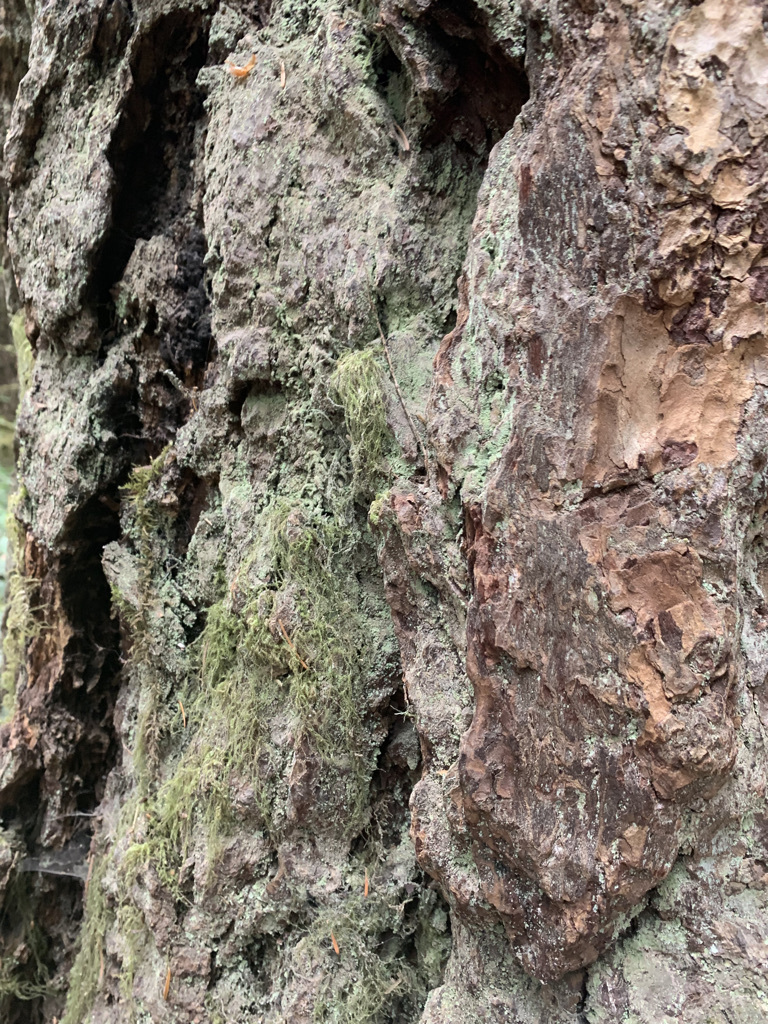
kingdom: Plantae
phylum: Tracheophyta
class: Pinopsida
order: Pinales
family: Pinaceae
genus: Pseudotsuga
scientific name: Pseudotsuga menziesii
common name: Douglas fir
